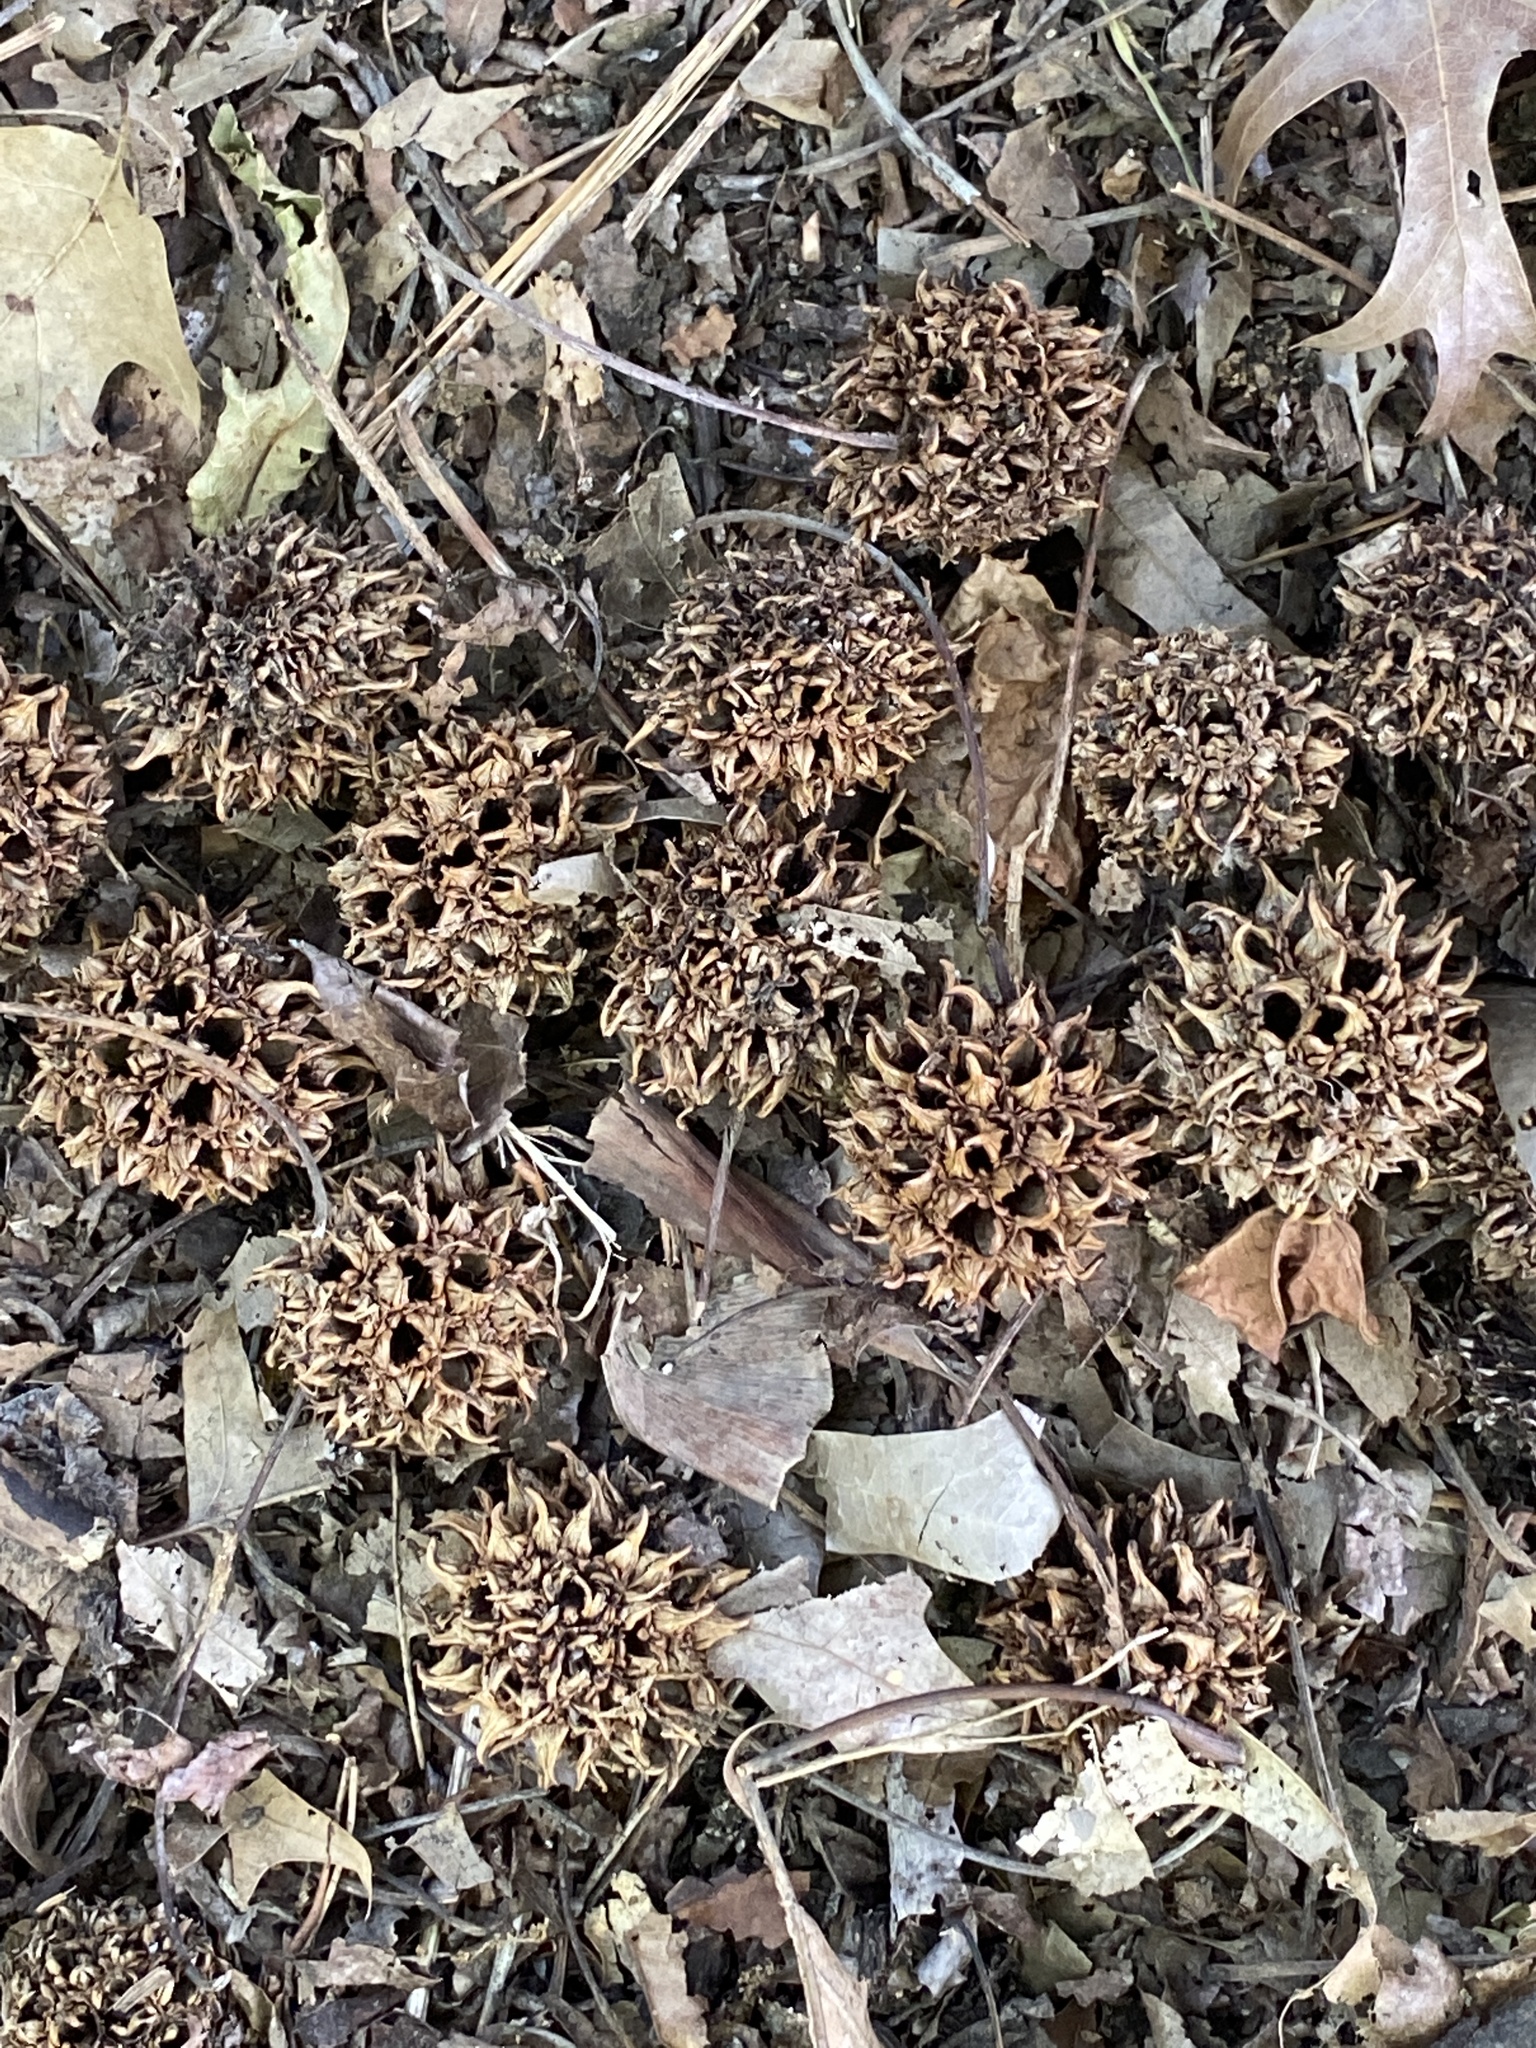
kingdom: Plantae
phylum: Tracheophyta
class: Magnoliopsida
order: Saxifragales
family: Altingiaceae
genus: Liquidambar
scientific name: Liquidambar styraciflua
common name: Sweet gum
